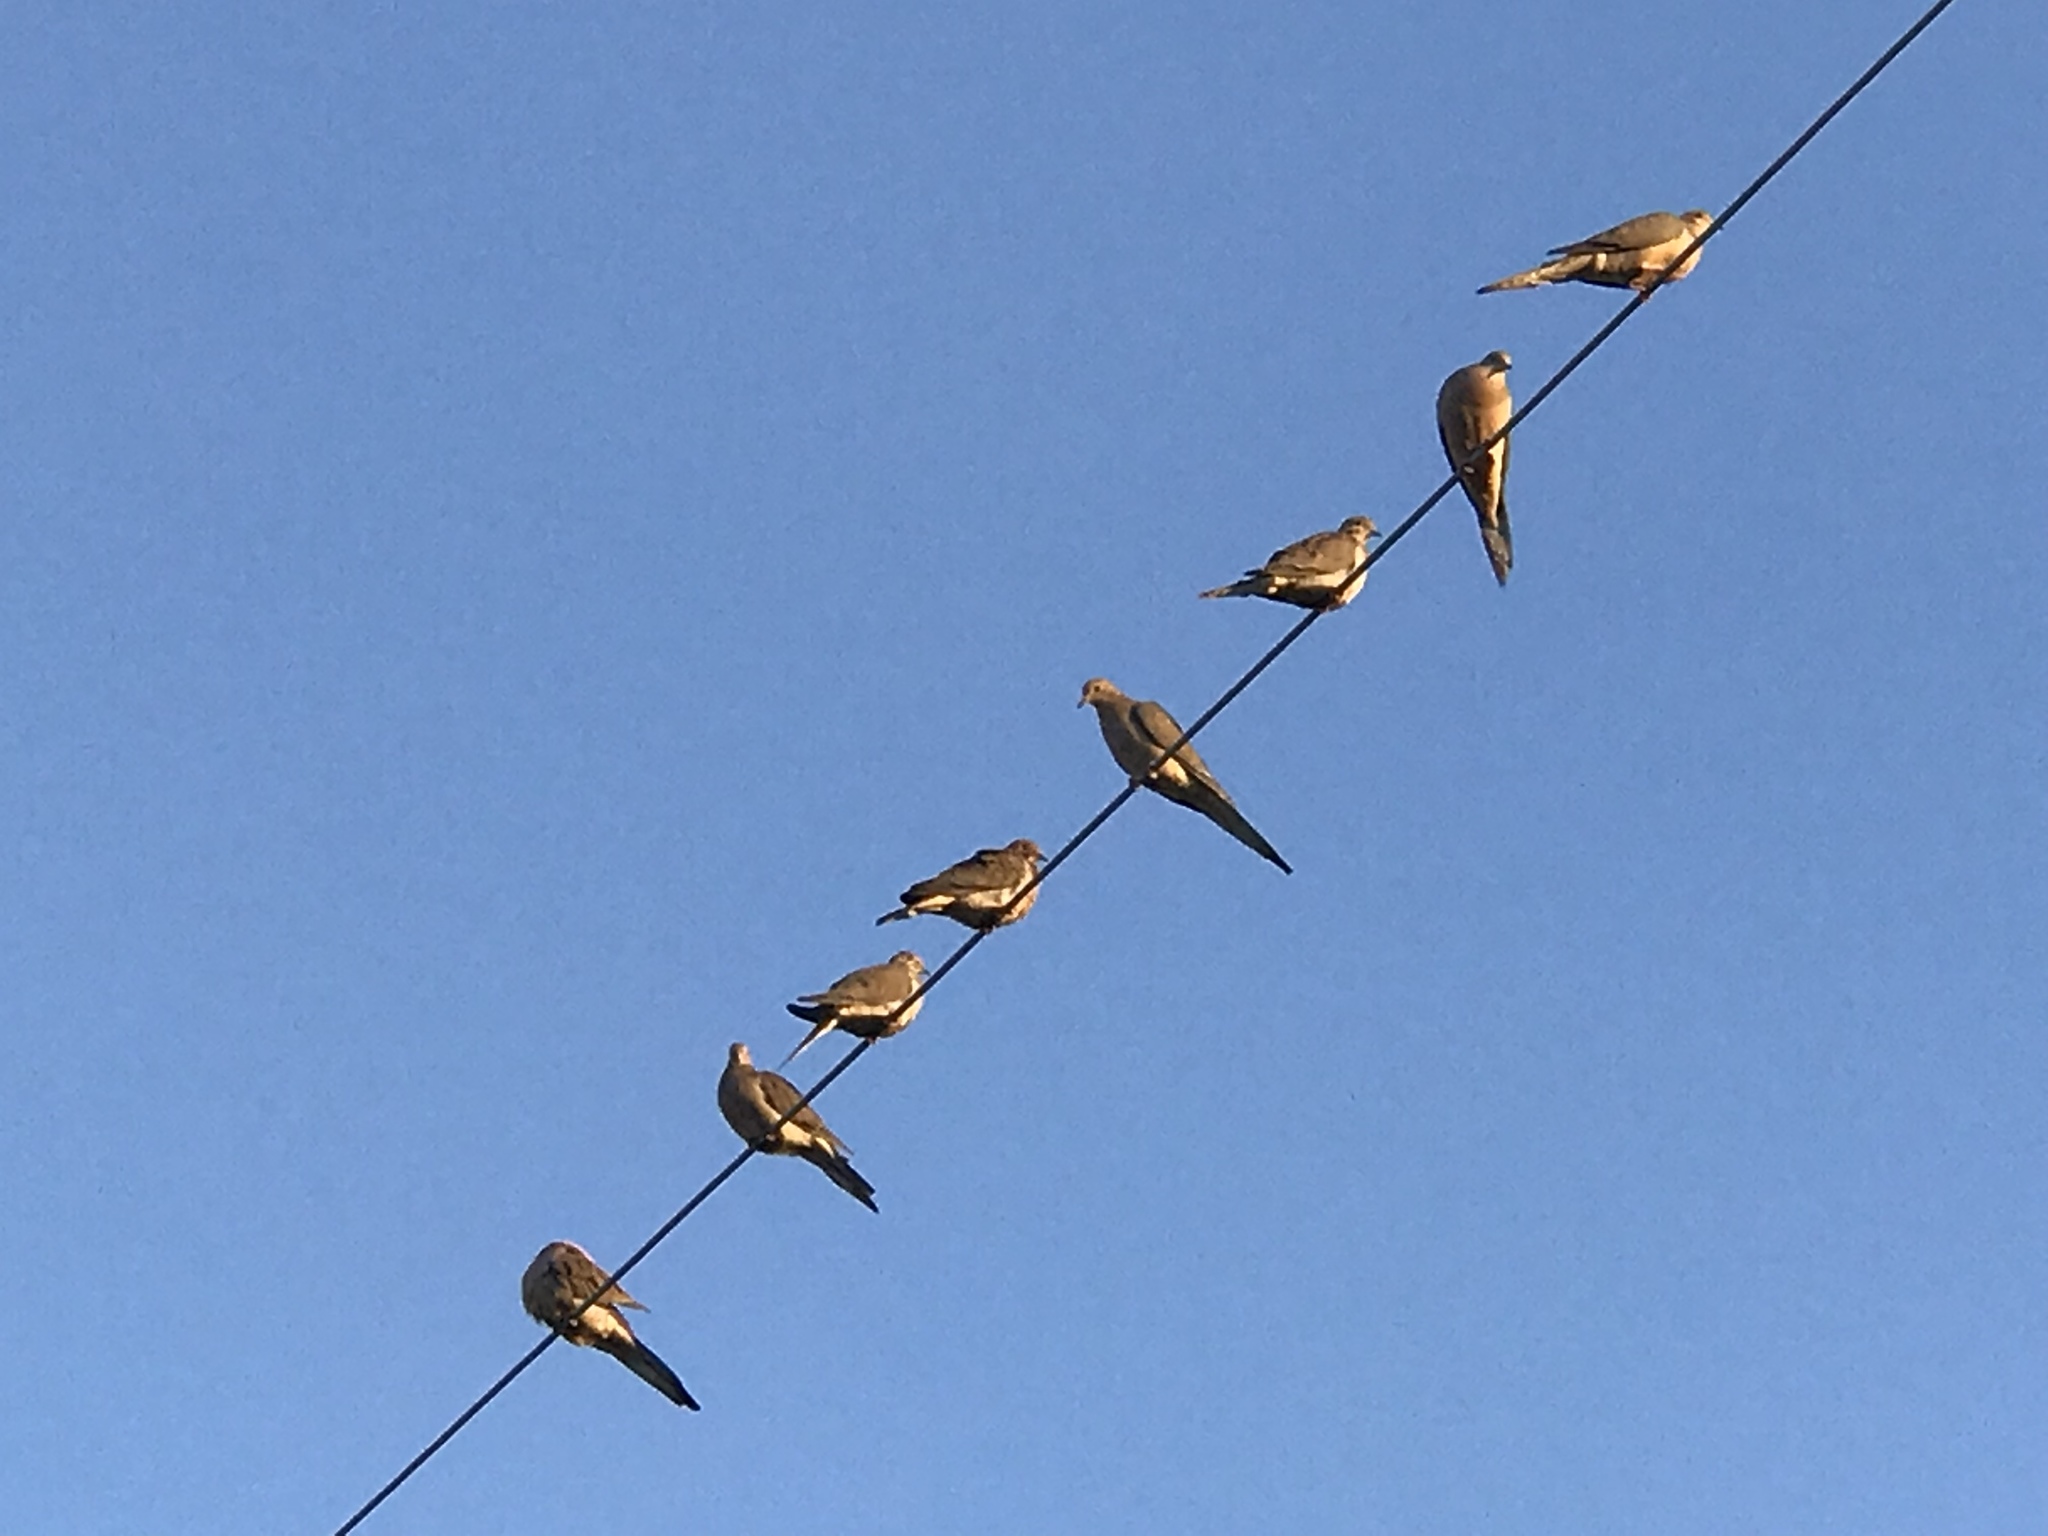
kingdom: Animalia
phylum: Chordata
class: Aves
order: Columbiformes
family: Columbidae
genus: Zenaida
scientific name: Zenaida macroura
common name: Mourning dove
